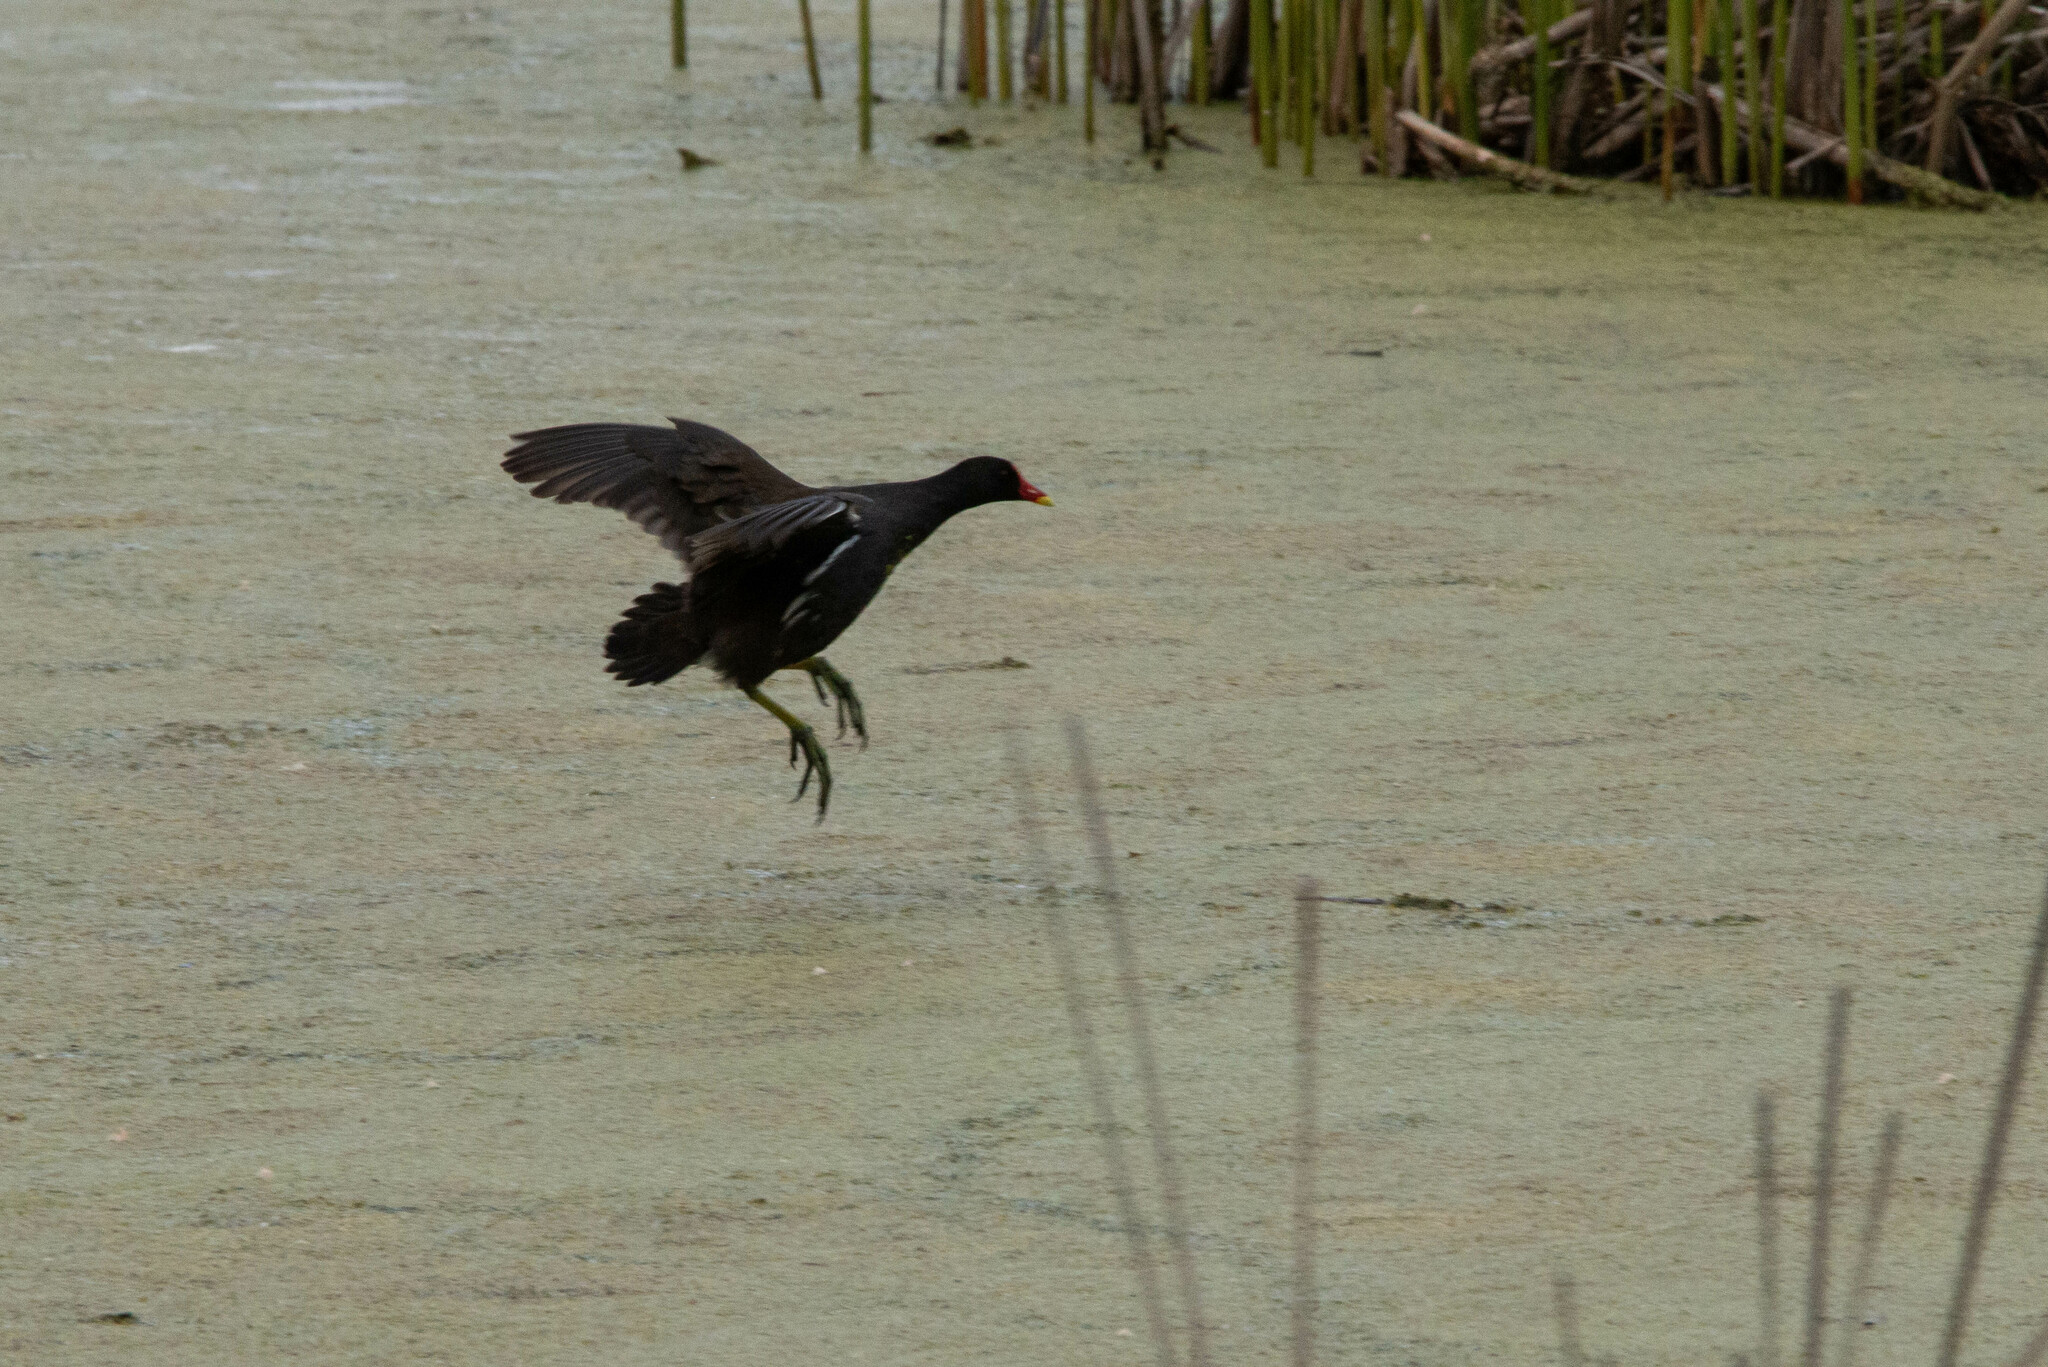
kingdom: Animalia
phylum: Chordata
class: Aves
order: Gruiformes
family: Rallidae
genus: Gallinula
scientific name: Gallinula chloropus
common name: Common moorhen
